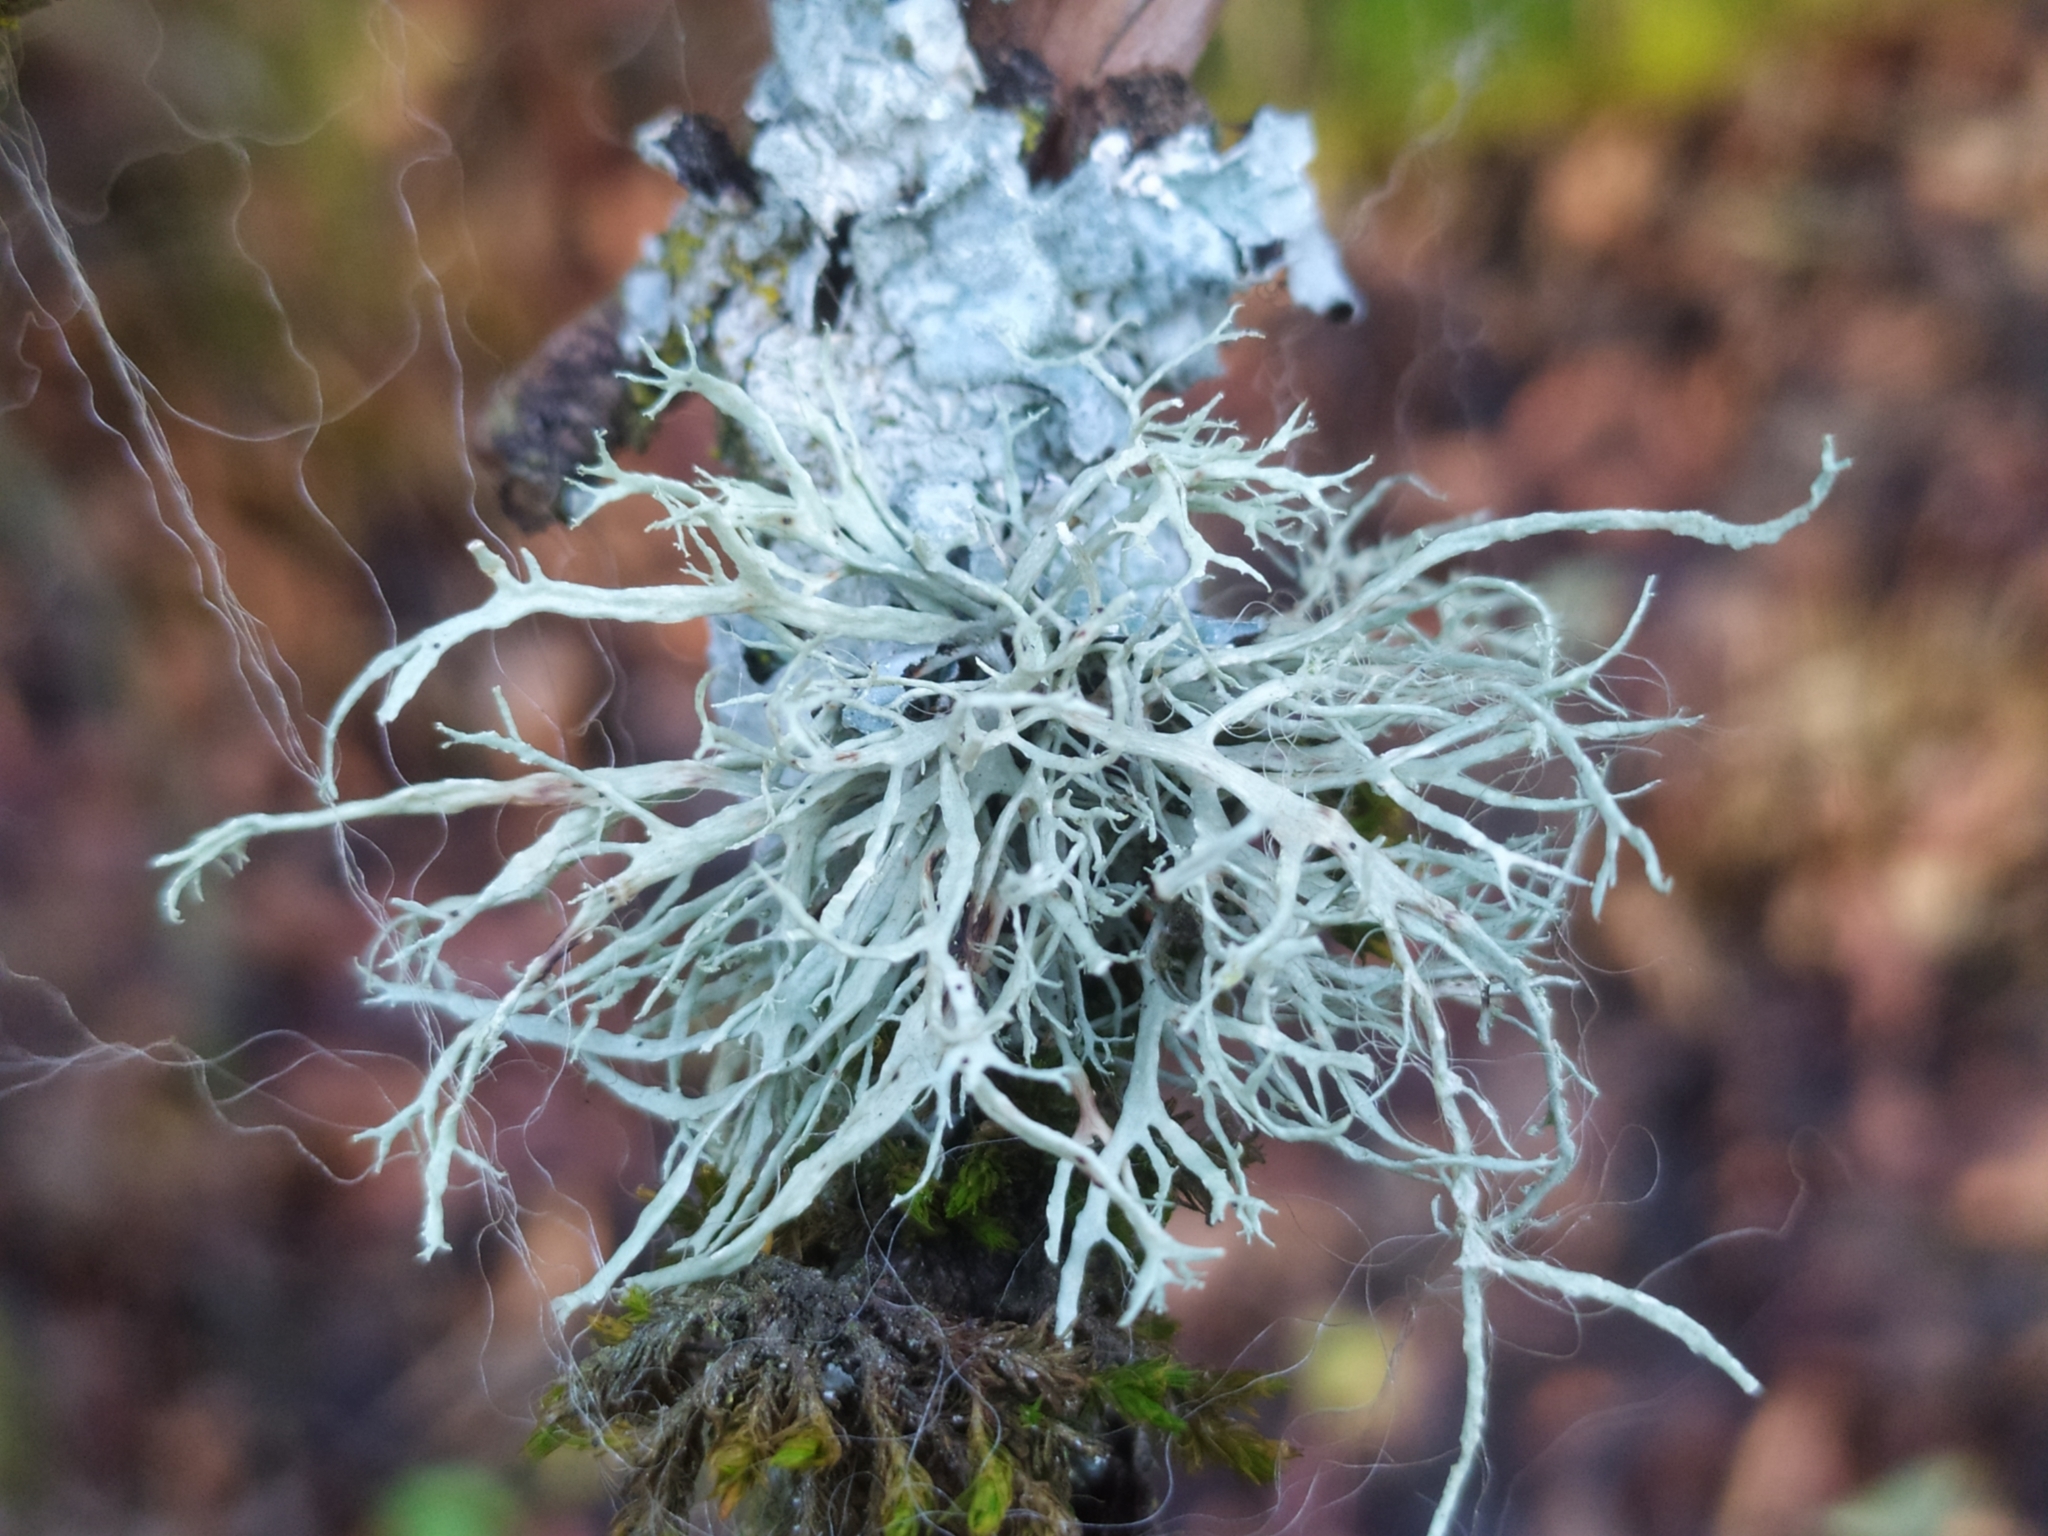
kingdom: Fungi
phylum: Ascomycota
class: Lecanoromycetes
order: Lecanorales
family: Ramalinaceae
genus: Ramalina
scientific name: Ramalina farinacea
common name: Farinose cartilage lichen
